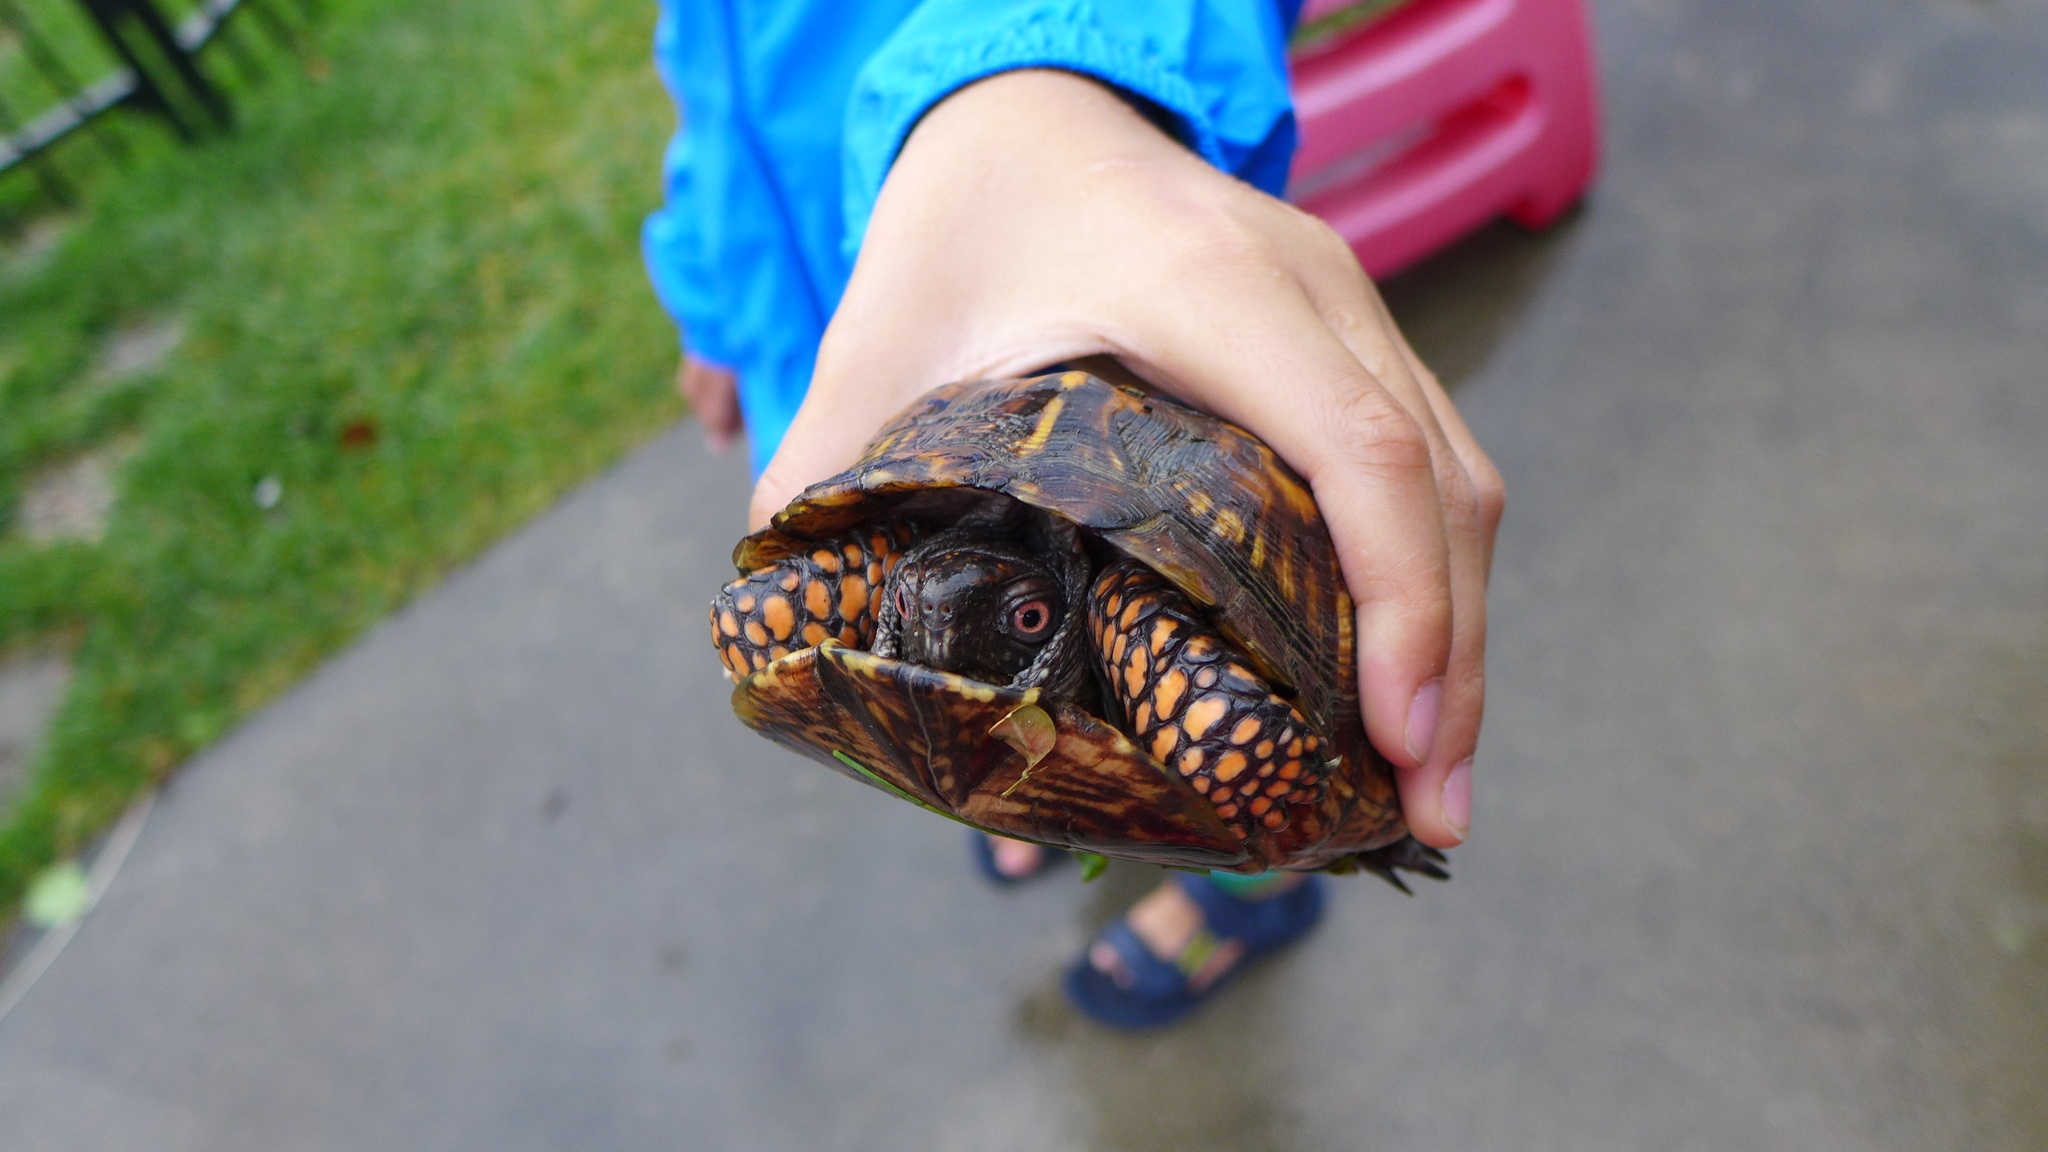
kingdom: Animalia
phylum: Chordata
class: Testudines
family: Emydidae
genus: Terrapene
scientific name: Terrapene carolina
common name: Common box turtle
